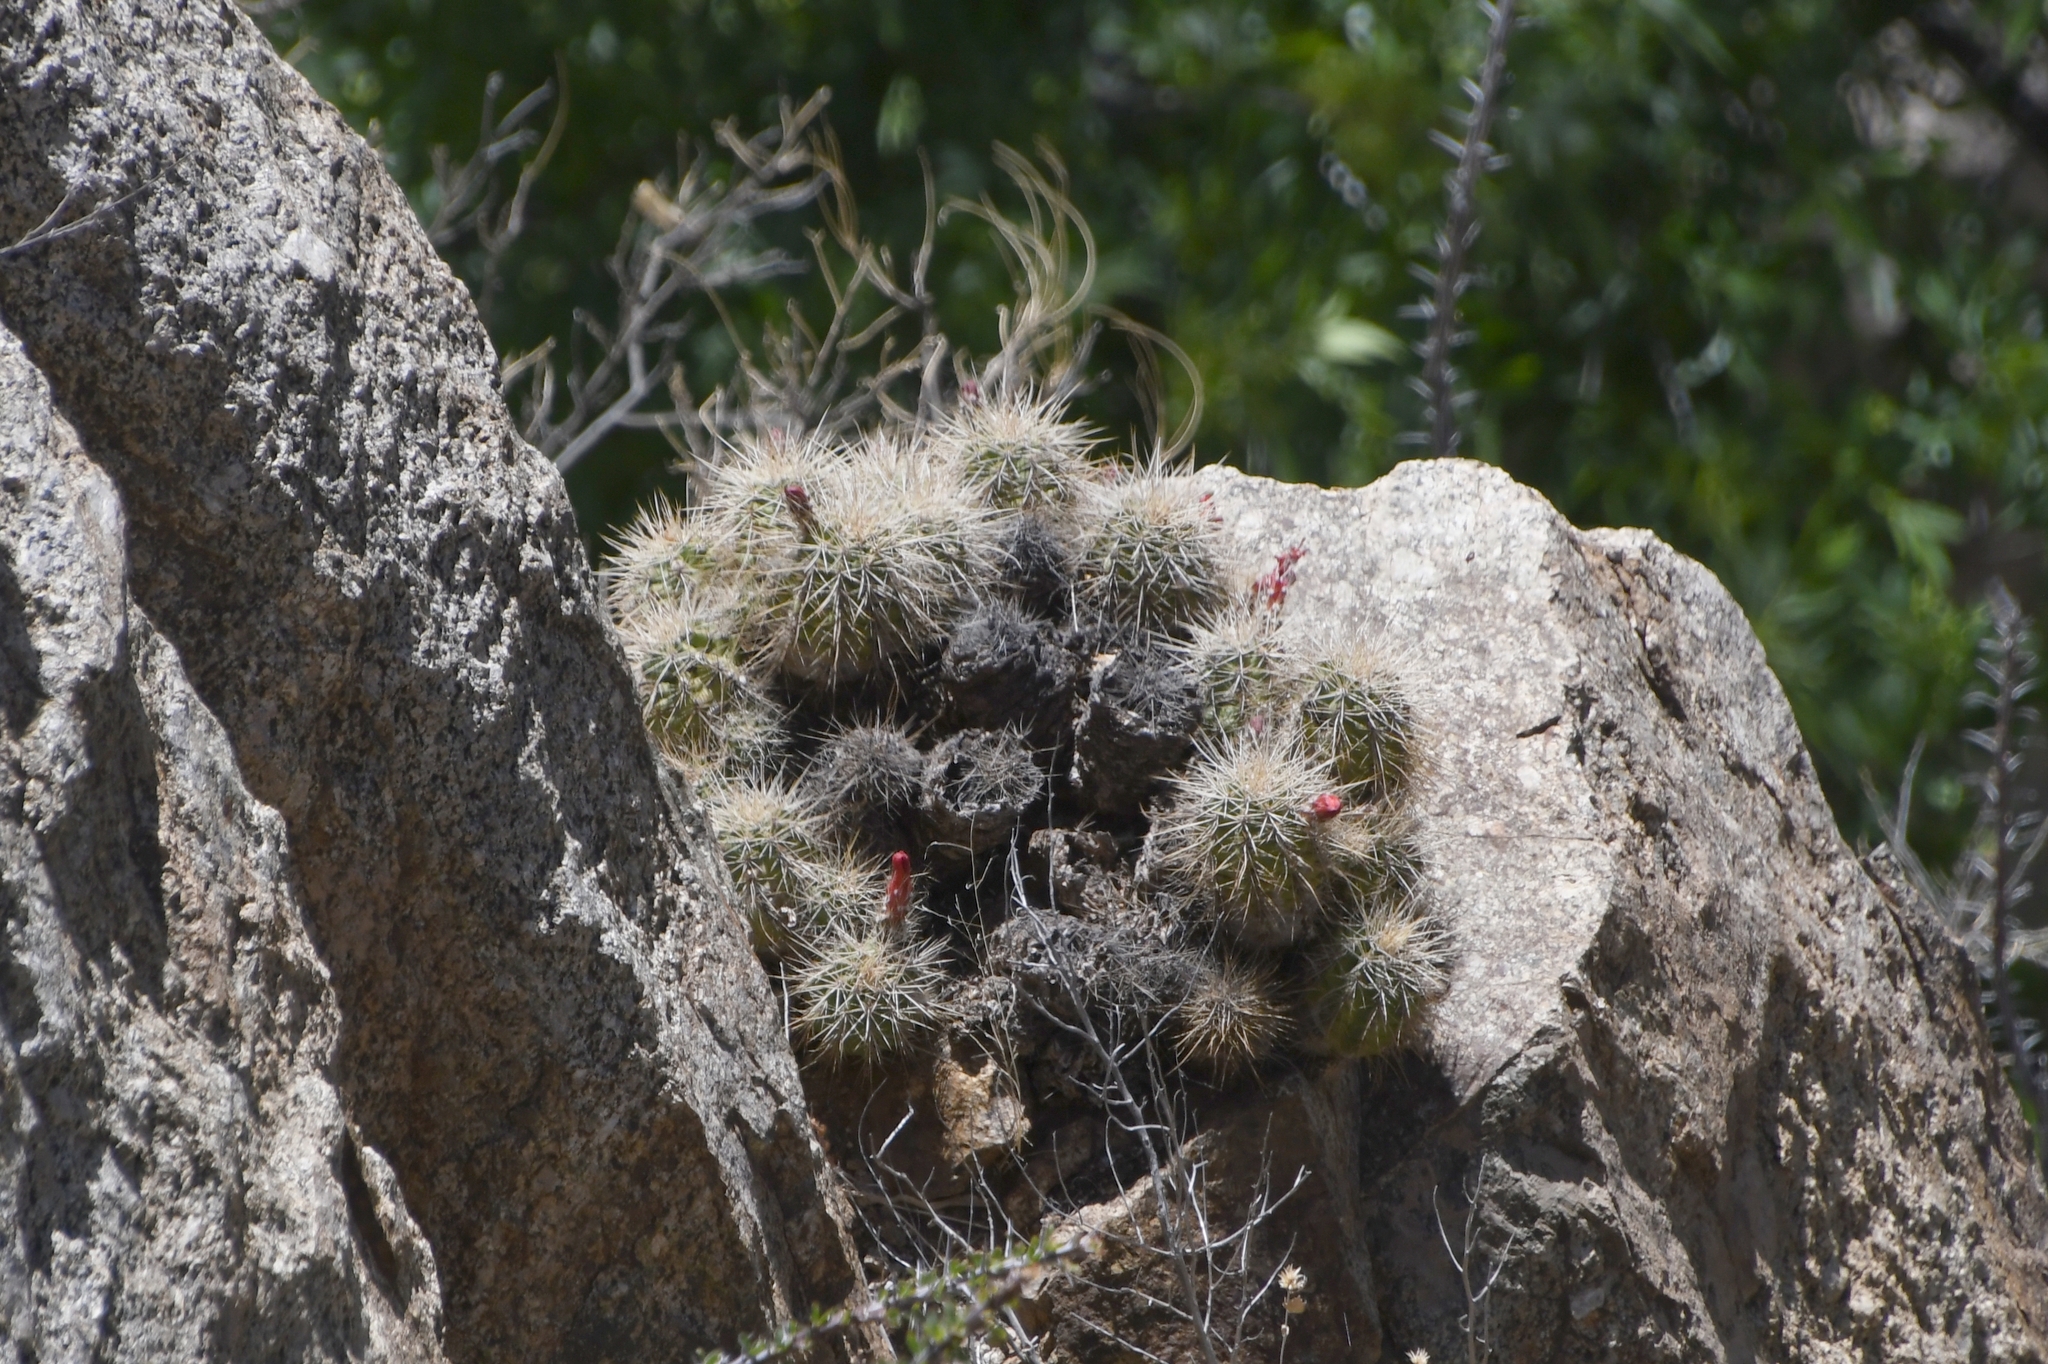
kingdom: Plantae
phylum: Tracheophyta
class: Magnoliopsida
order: Caryophyllales
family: Cactaceae
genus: Echinocereus
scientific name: Echinocereus coccineus
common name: Scarlet hedgehog cactus
